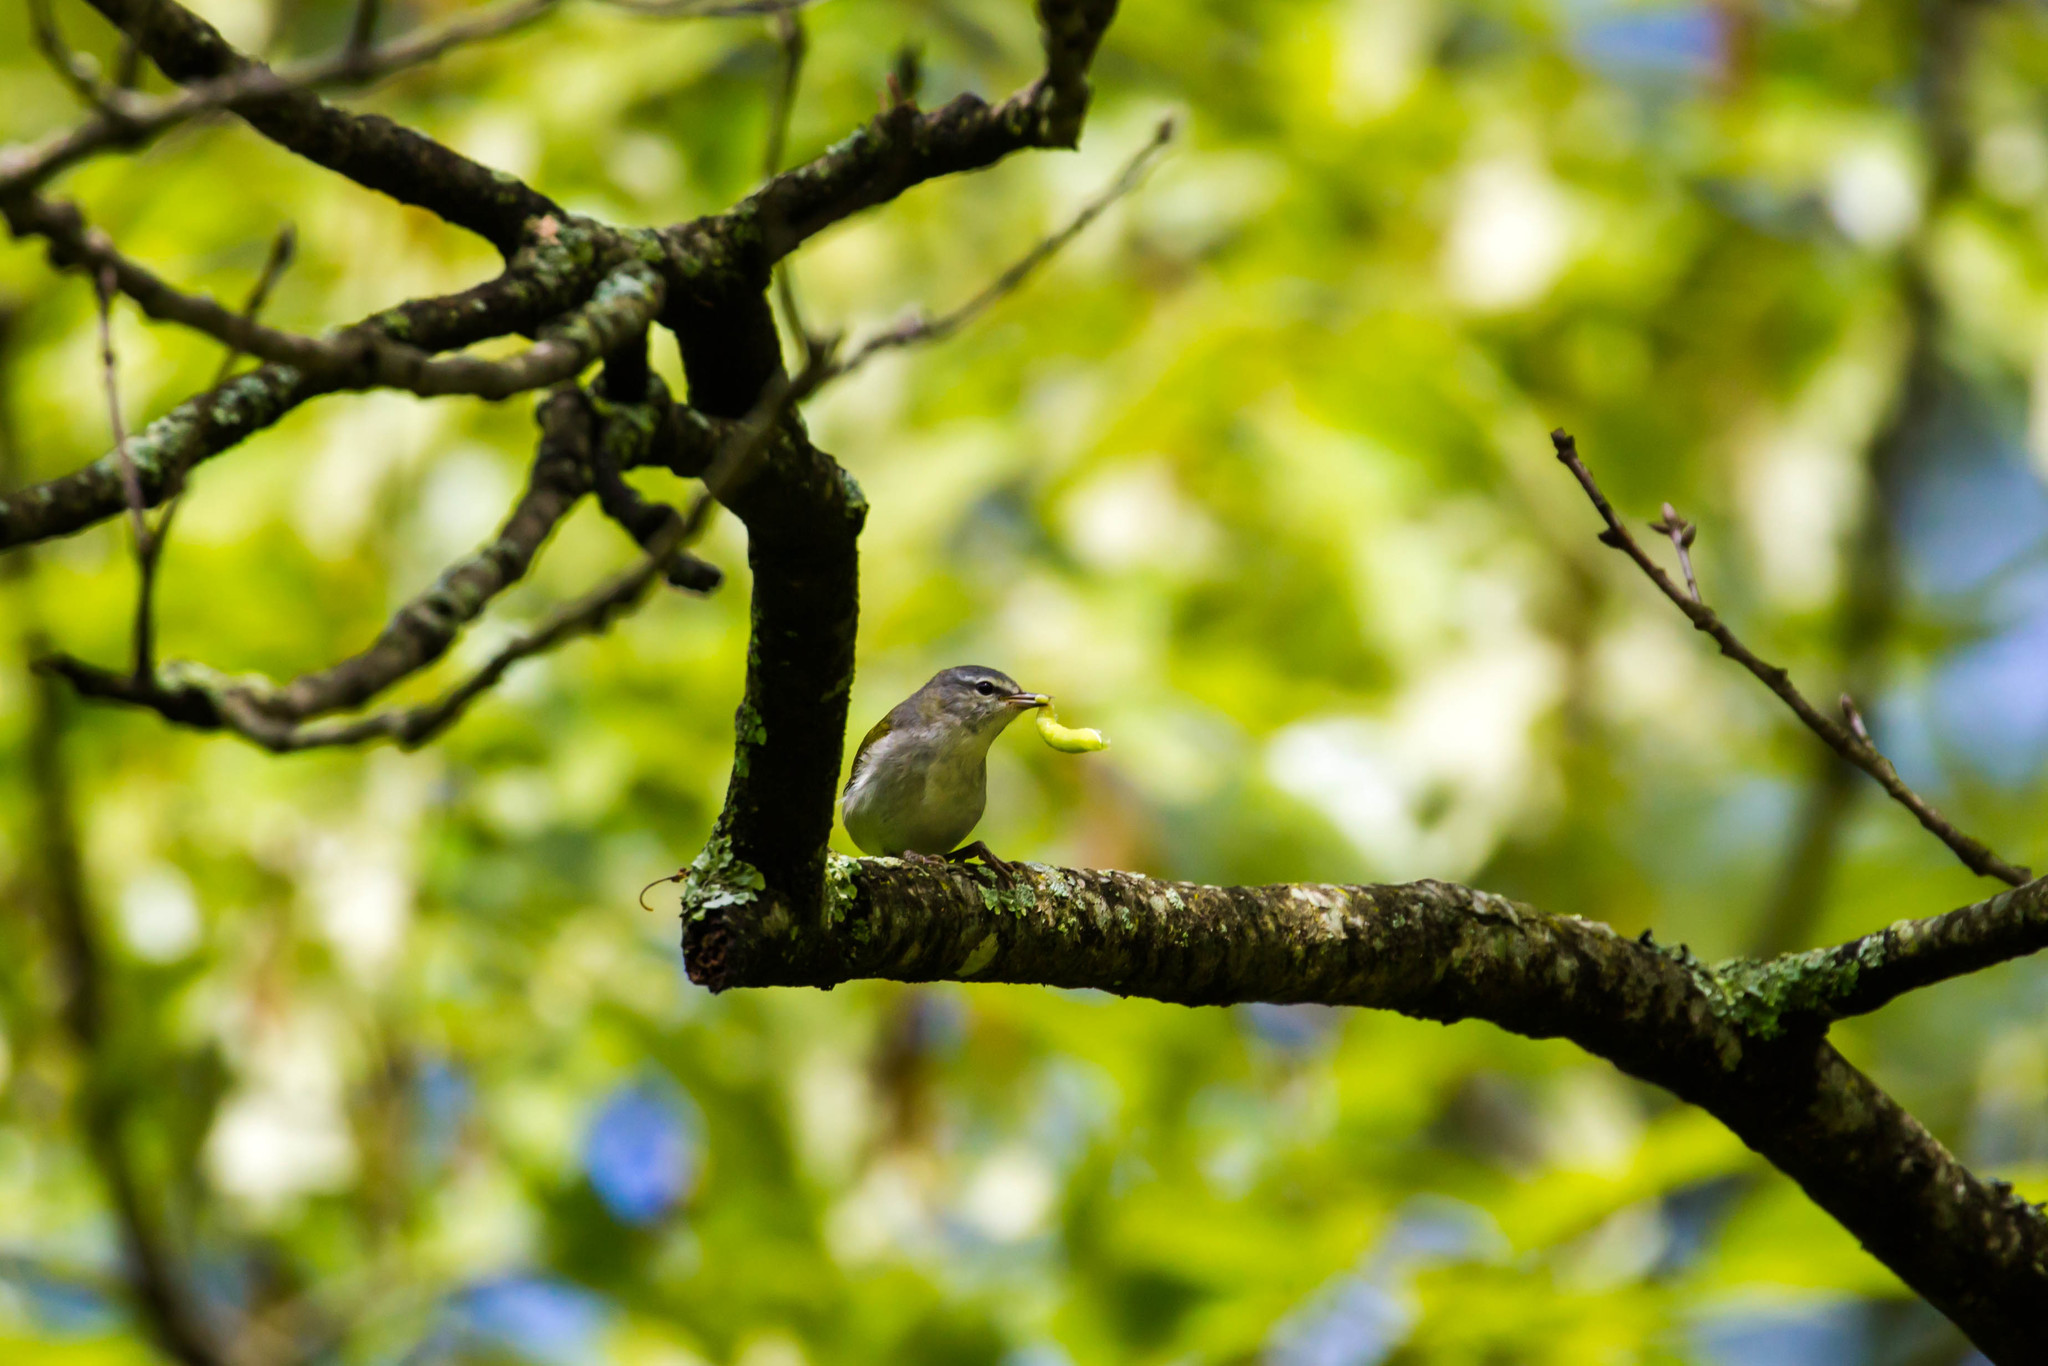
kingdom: Animalia
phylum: Chordata
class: Aves
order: Passeriformes
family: Parulidae
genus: Leiothlypis
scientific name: Leiothlypis peregrina
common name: Tennessee warbler
